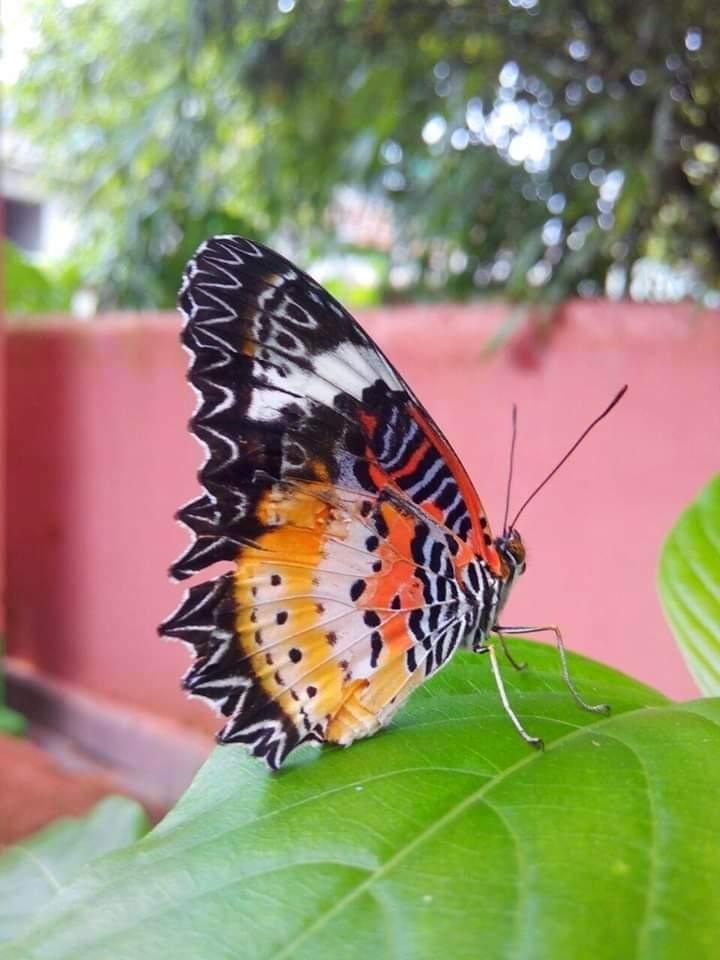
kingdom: Animalia
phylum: Arthropoda
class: Insecta
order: Lepidoptera
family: Nymphalidae
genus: Cethosia
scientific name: Cethosia cyane
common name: Leopard lacewing butterfly
